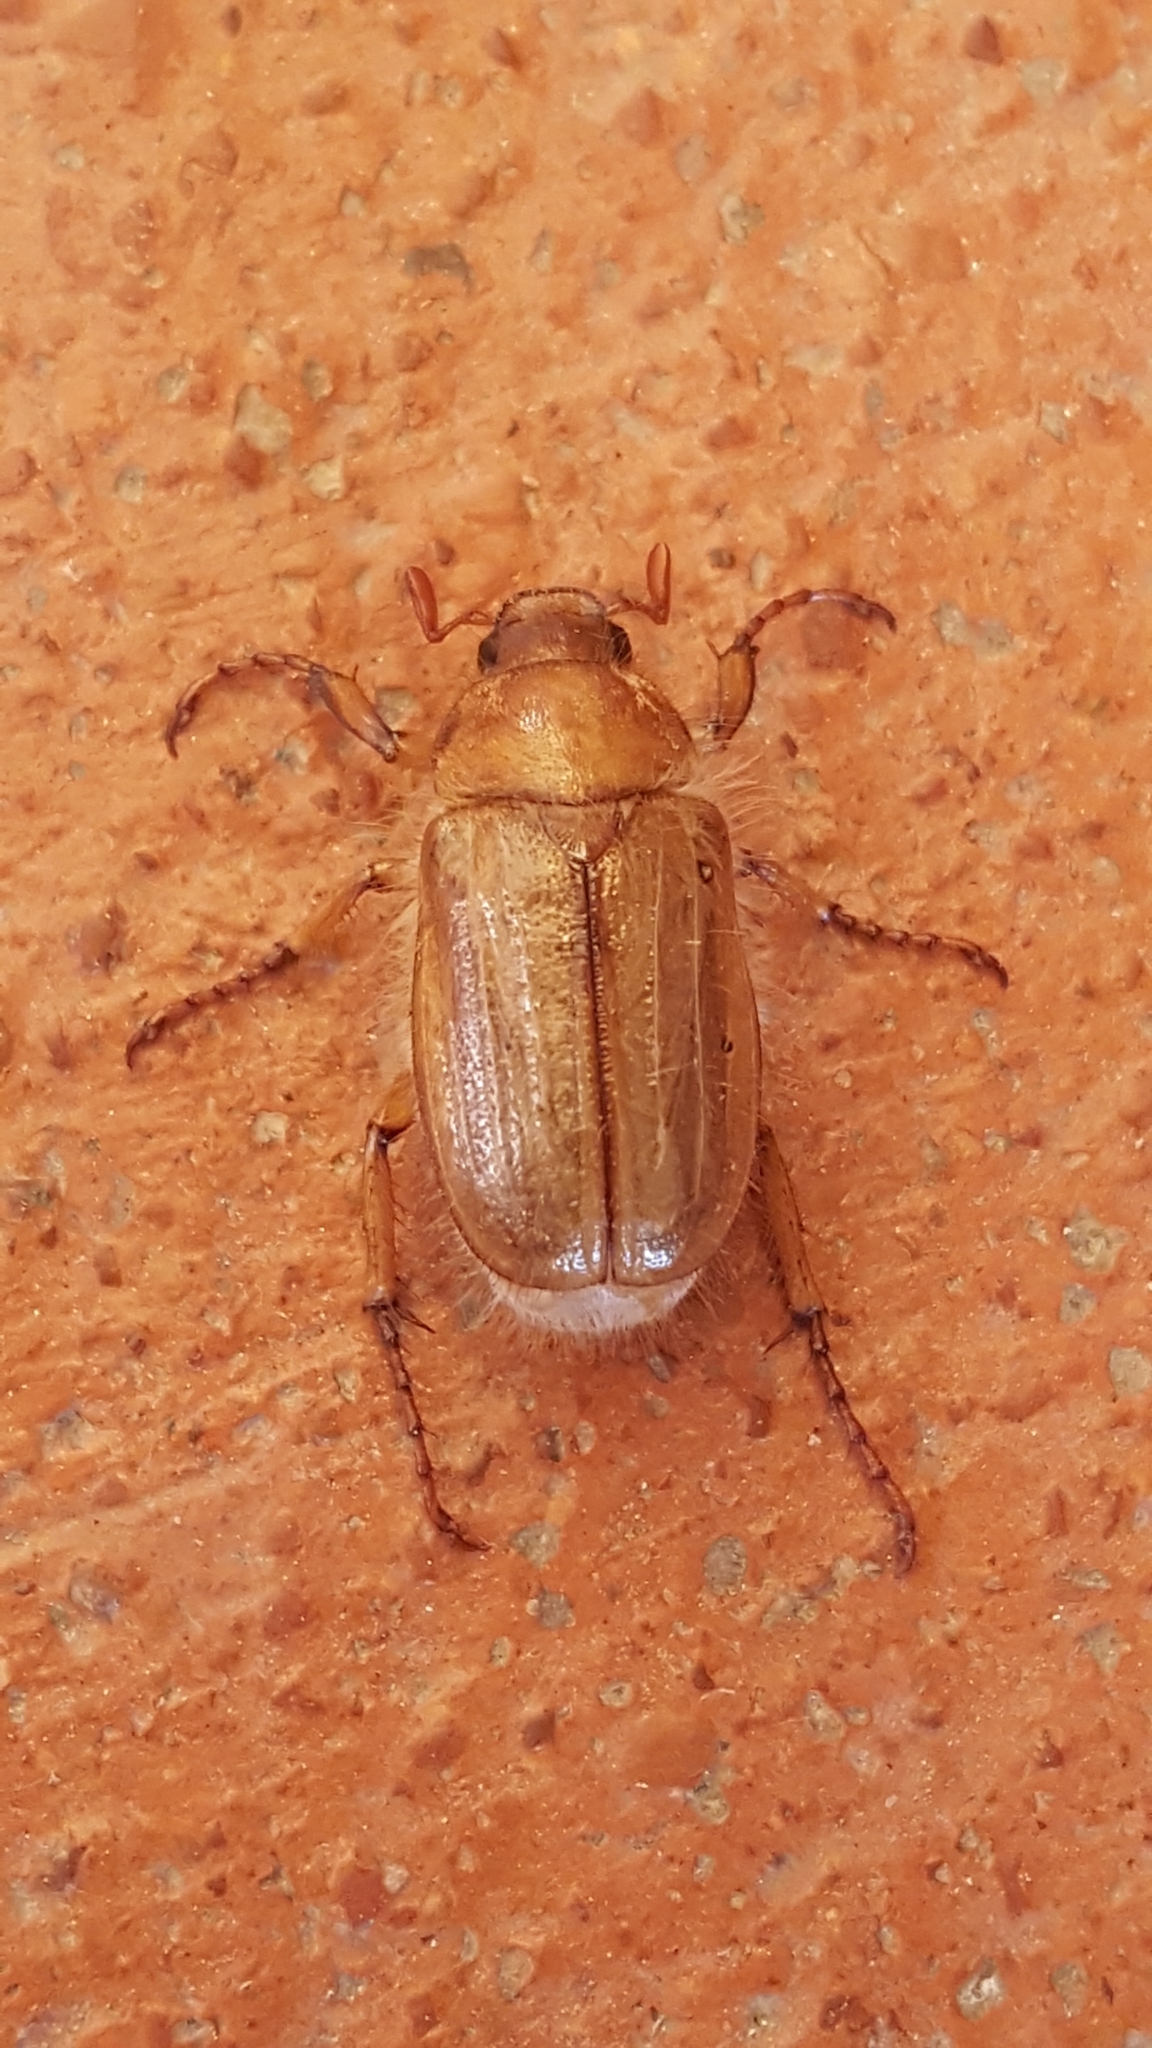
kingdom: Animalia
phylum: Arthropoda
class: Insecta
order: Coleoptera
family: Scarabaeidae
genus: Amphimallon
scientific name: Amphimallon assimile
